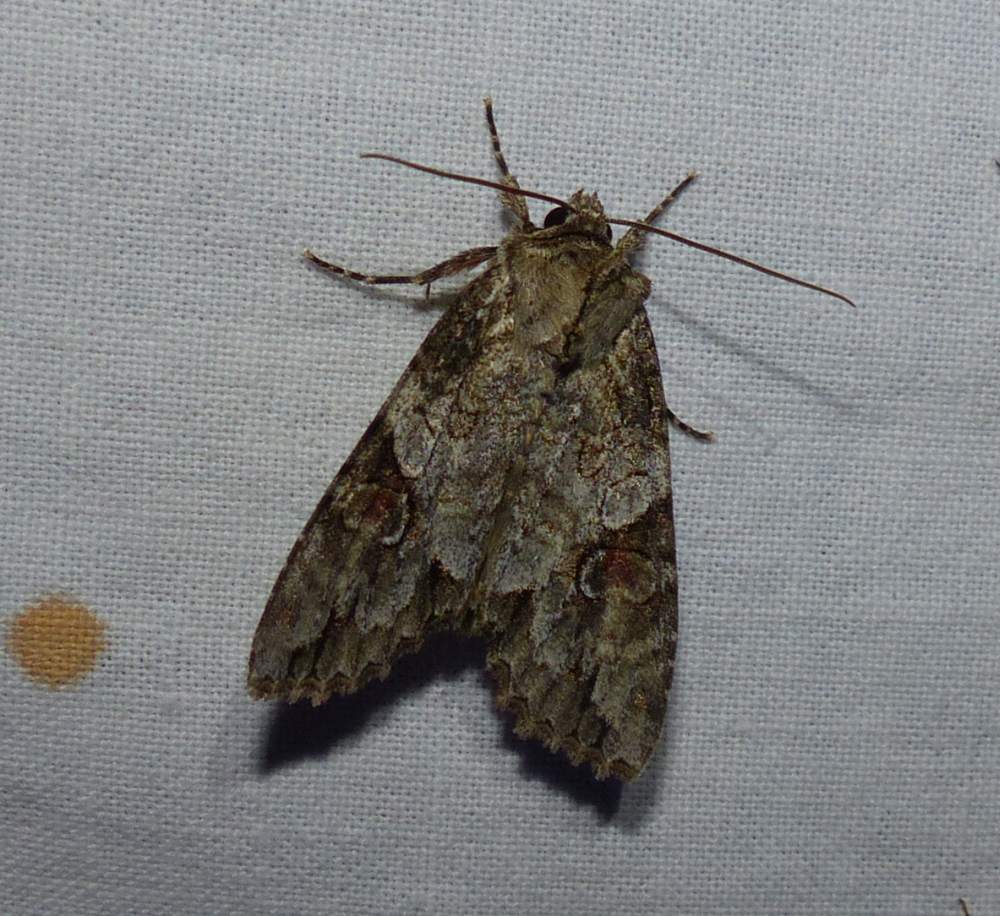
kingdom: Animalia
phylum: Arthropoda
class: Insecta
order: Lepidoptera
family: Noctuidae
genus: Achatia
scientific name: Achatia latex
